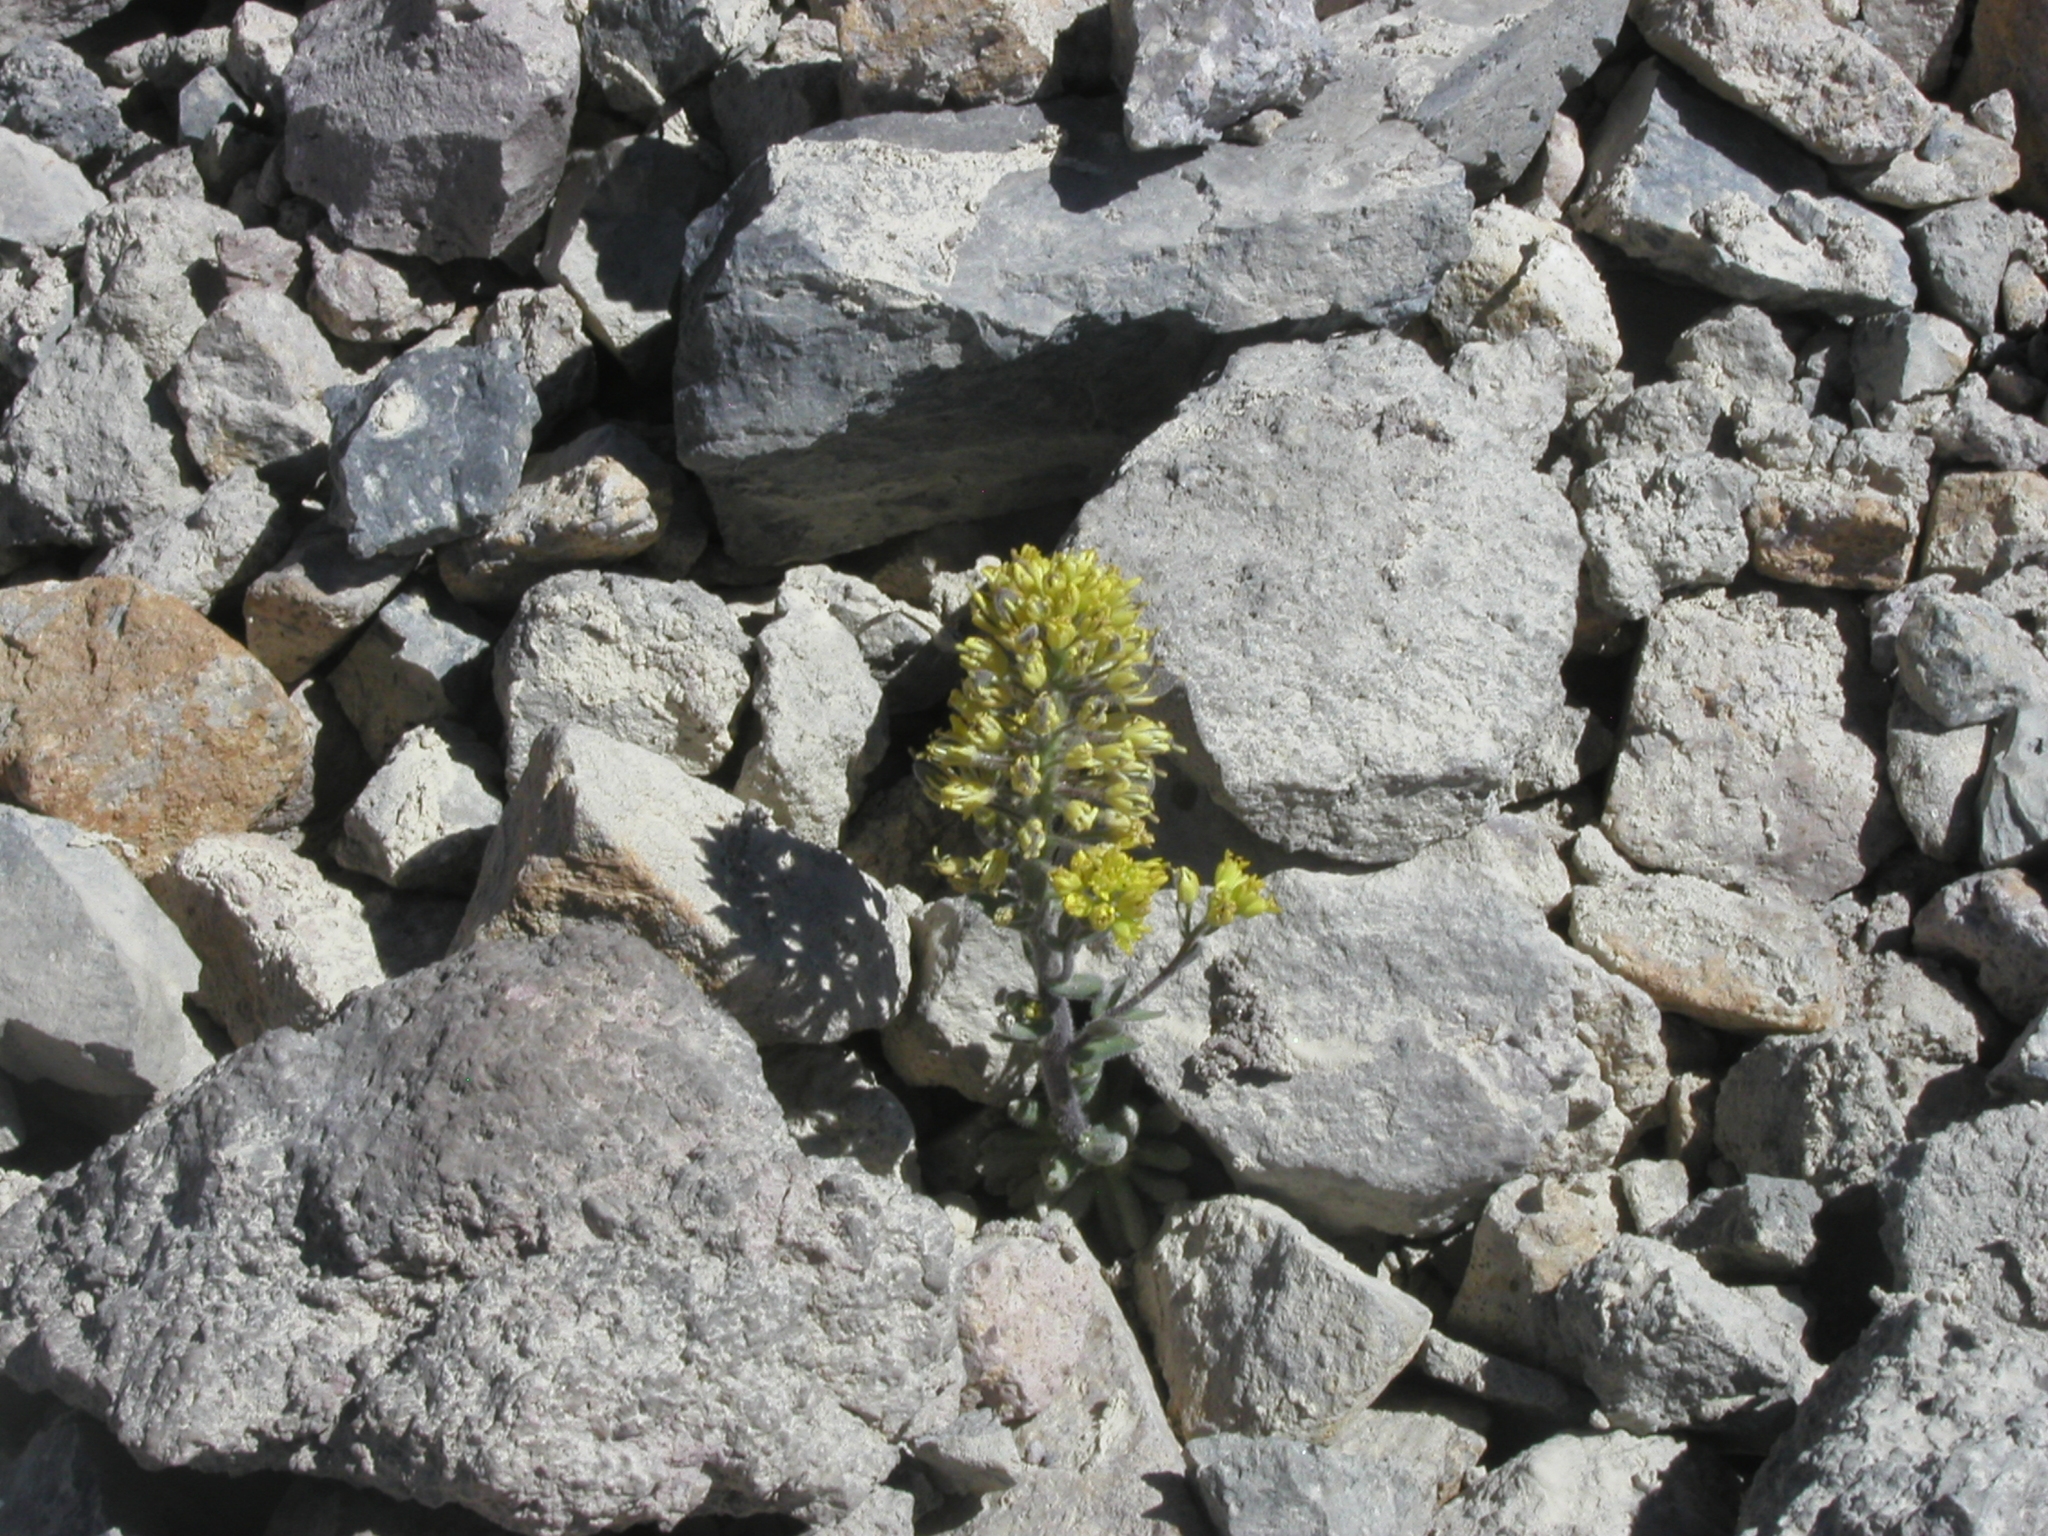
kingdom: Plantae
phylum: Tracheophyta
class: Magnoliopsida
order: Brassicales
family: Brassicaceae
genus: Draba
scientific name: Draba aureola
